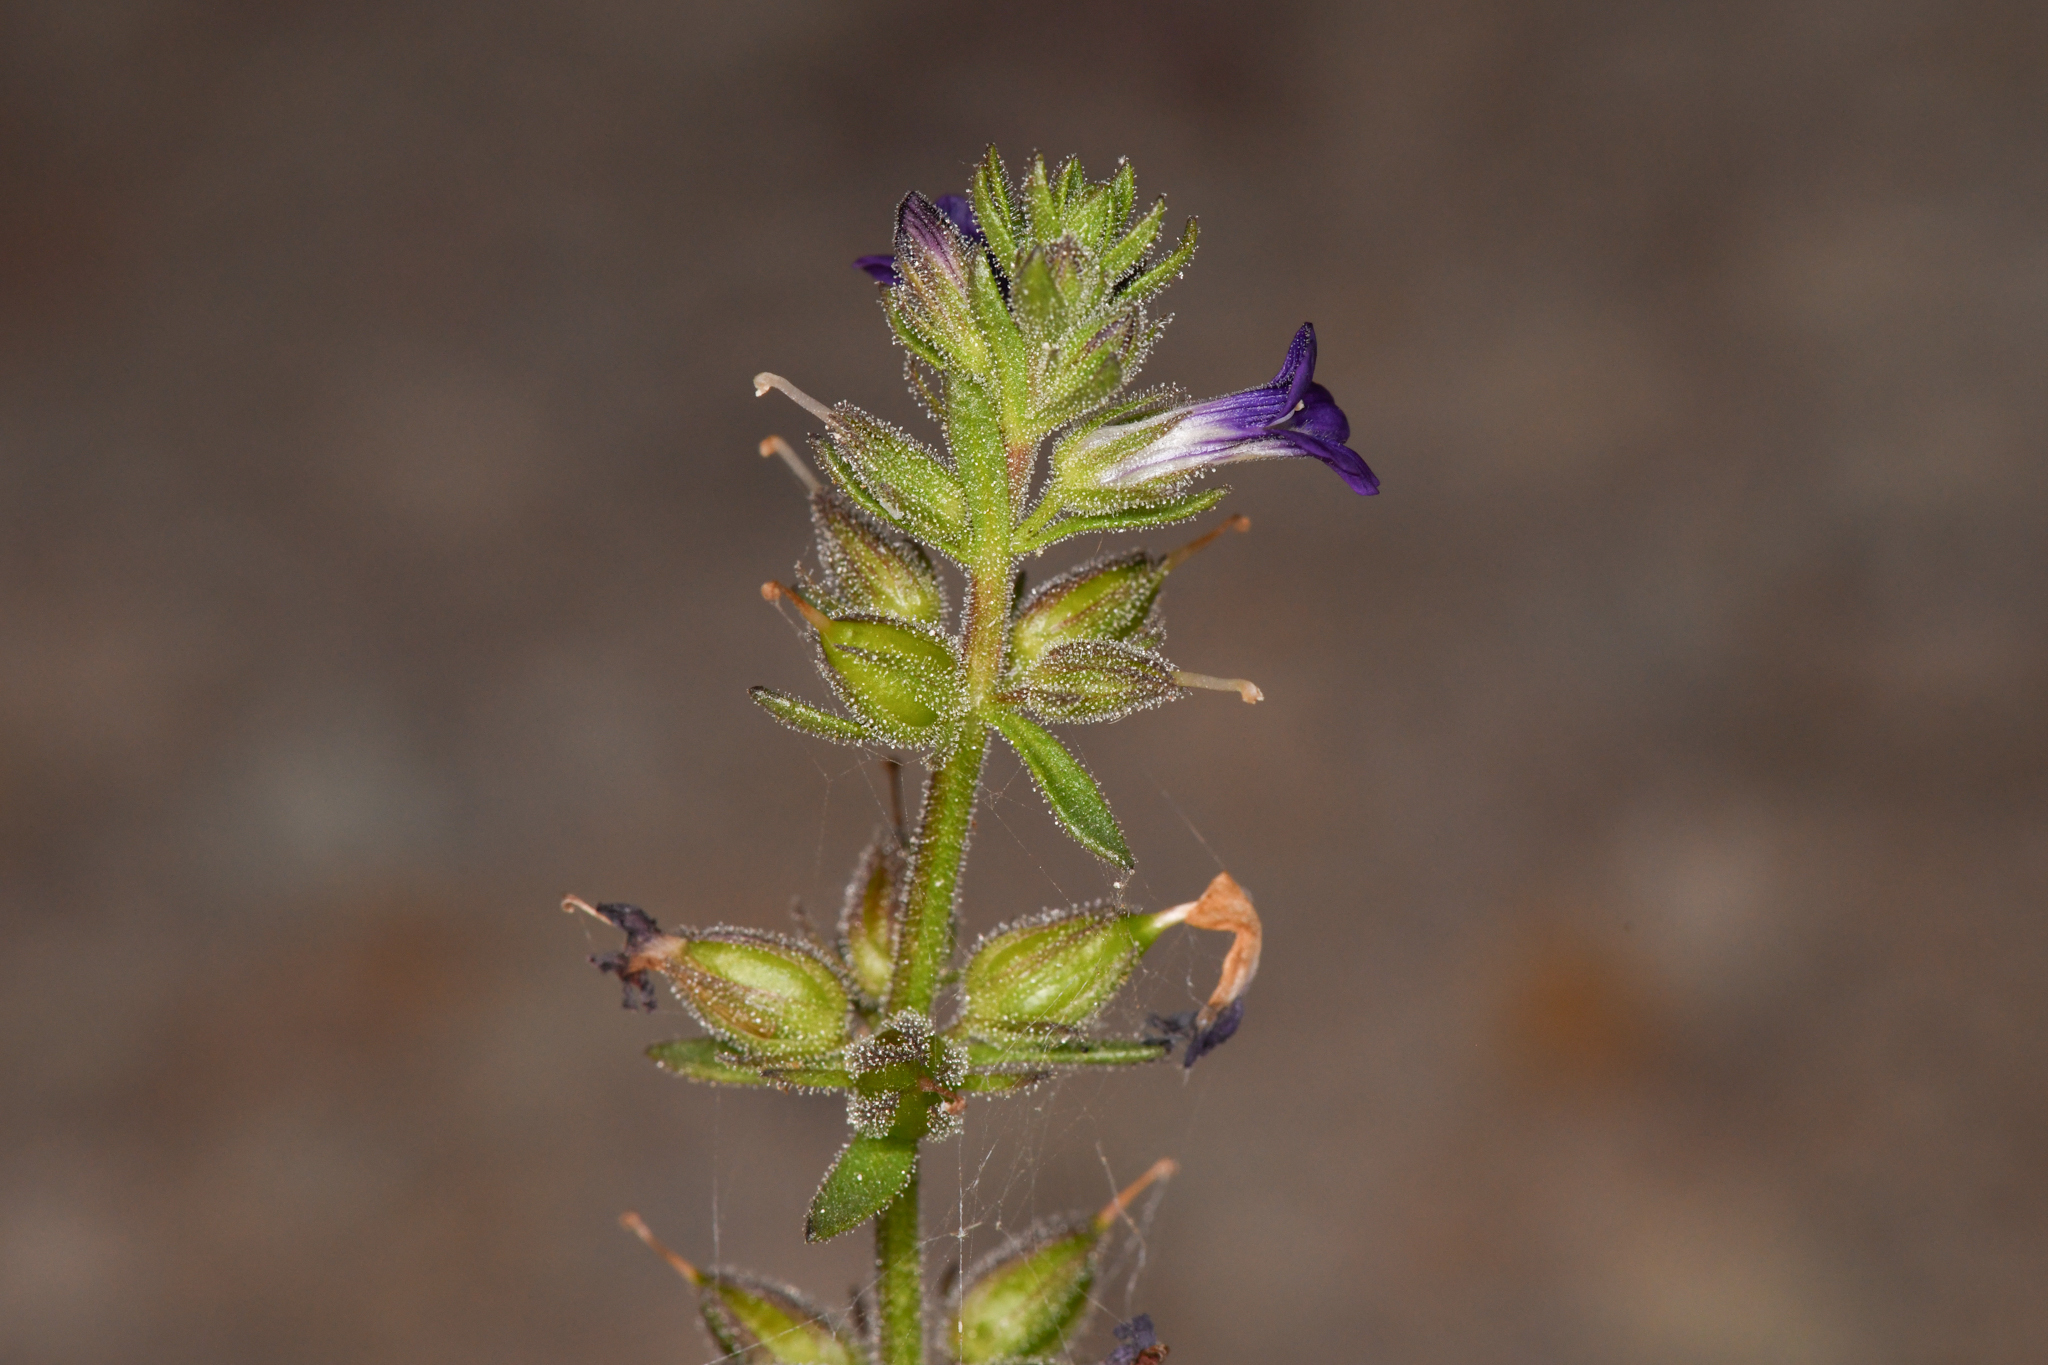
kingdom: Plantae
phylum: Tracheophyta
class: Magnoliopsida
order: Lamiales
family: Plantaginaceae
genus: Stemodia
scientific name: Stemodia durantifolia
